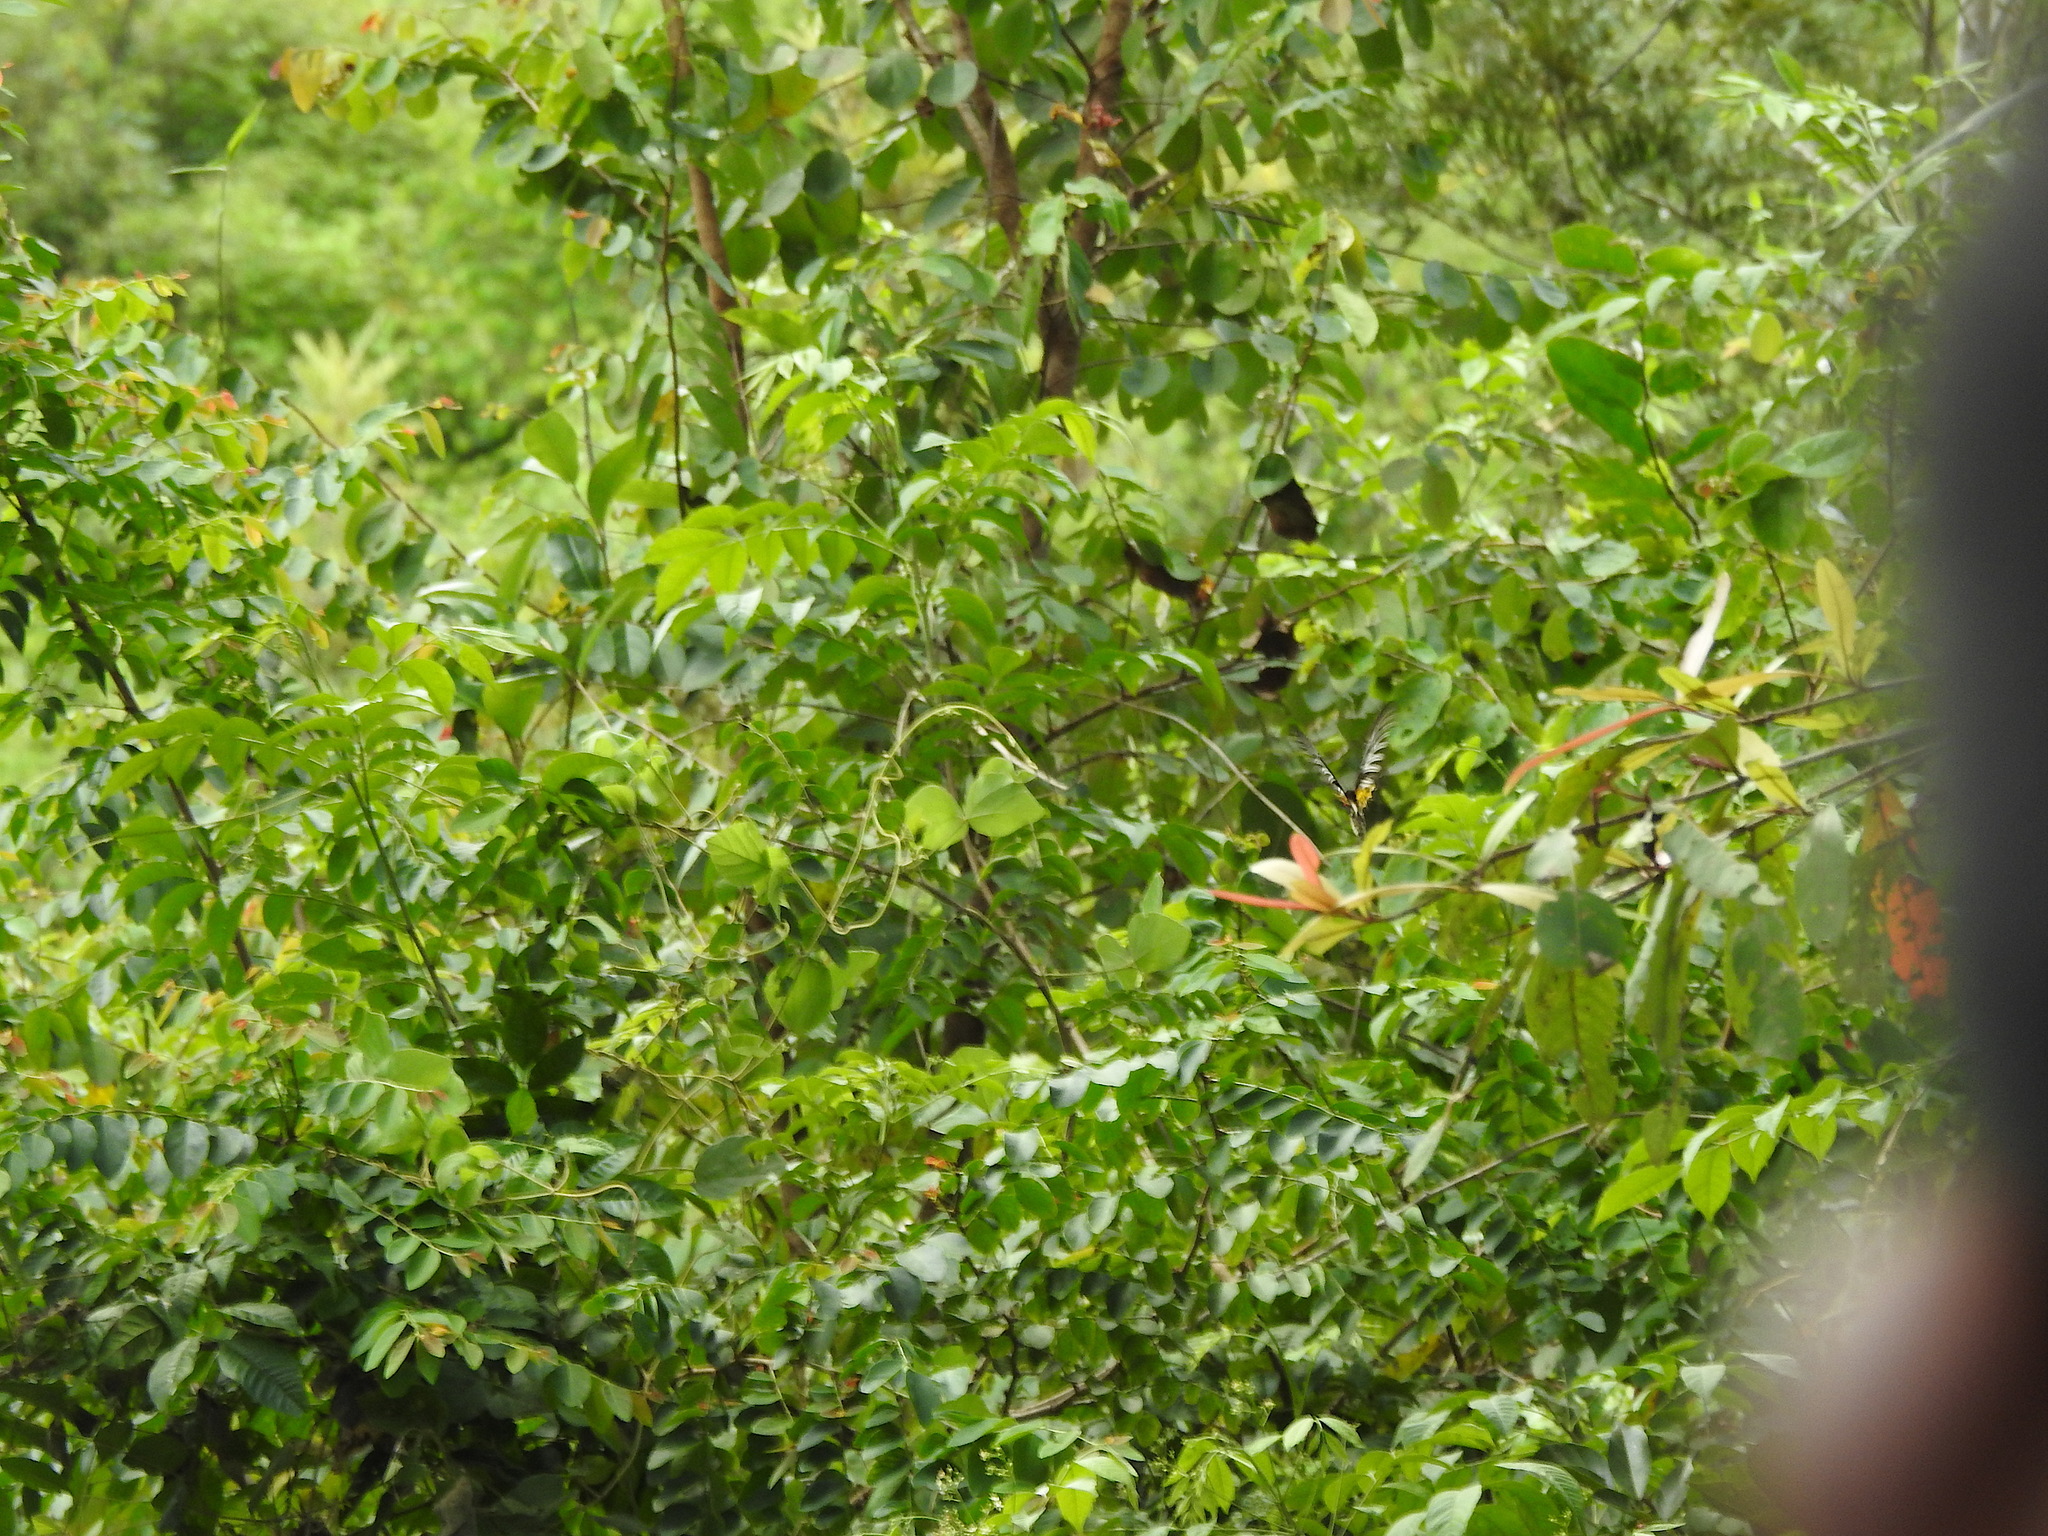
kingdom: Animalia
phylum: Arthropoda
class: Insecta
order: Lepidoptera
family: Papilionidae
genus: Troides
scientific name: Troides minos
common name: Malabar birdwing
